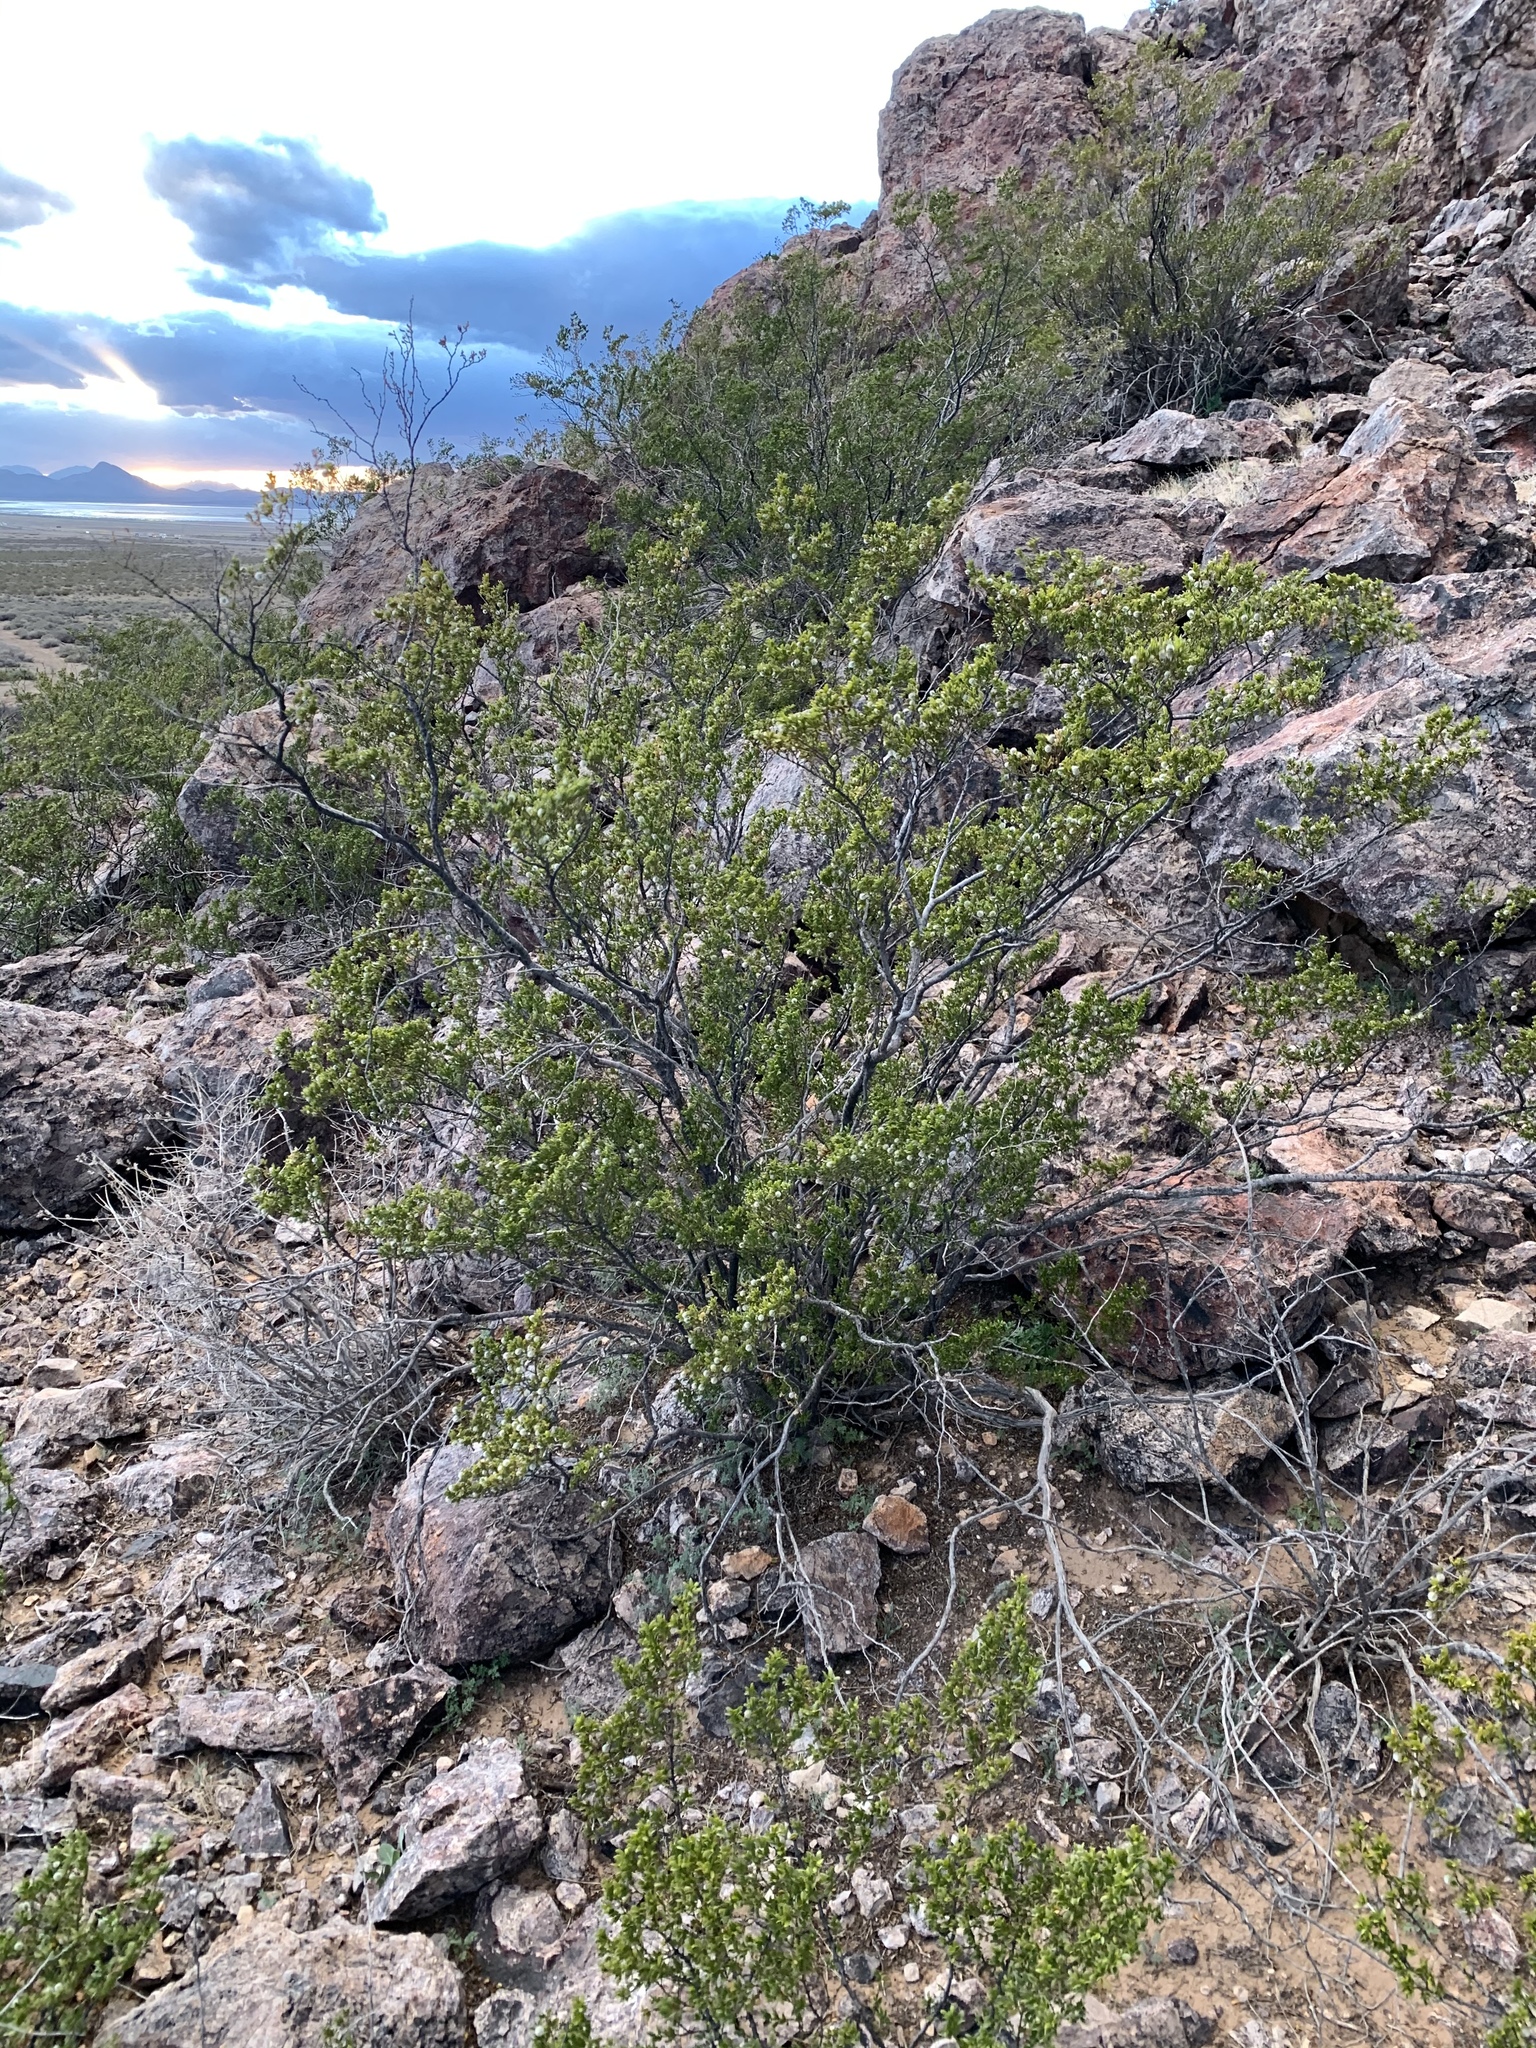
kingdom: Plantae
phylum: Tracheophyta
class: Magnoliopsida
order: Zygophyllales
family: Zygophyllaceae
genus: Larrea
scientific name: Larrea tridentata
